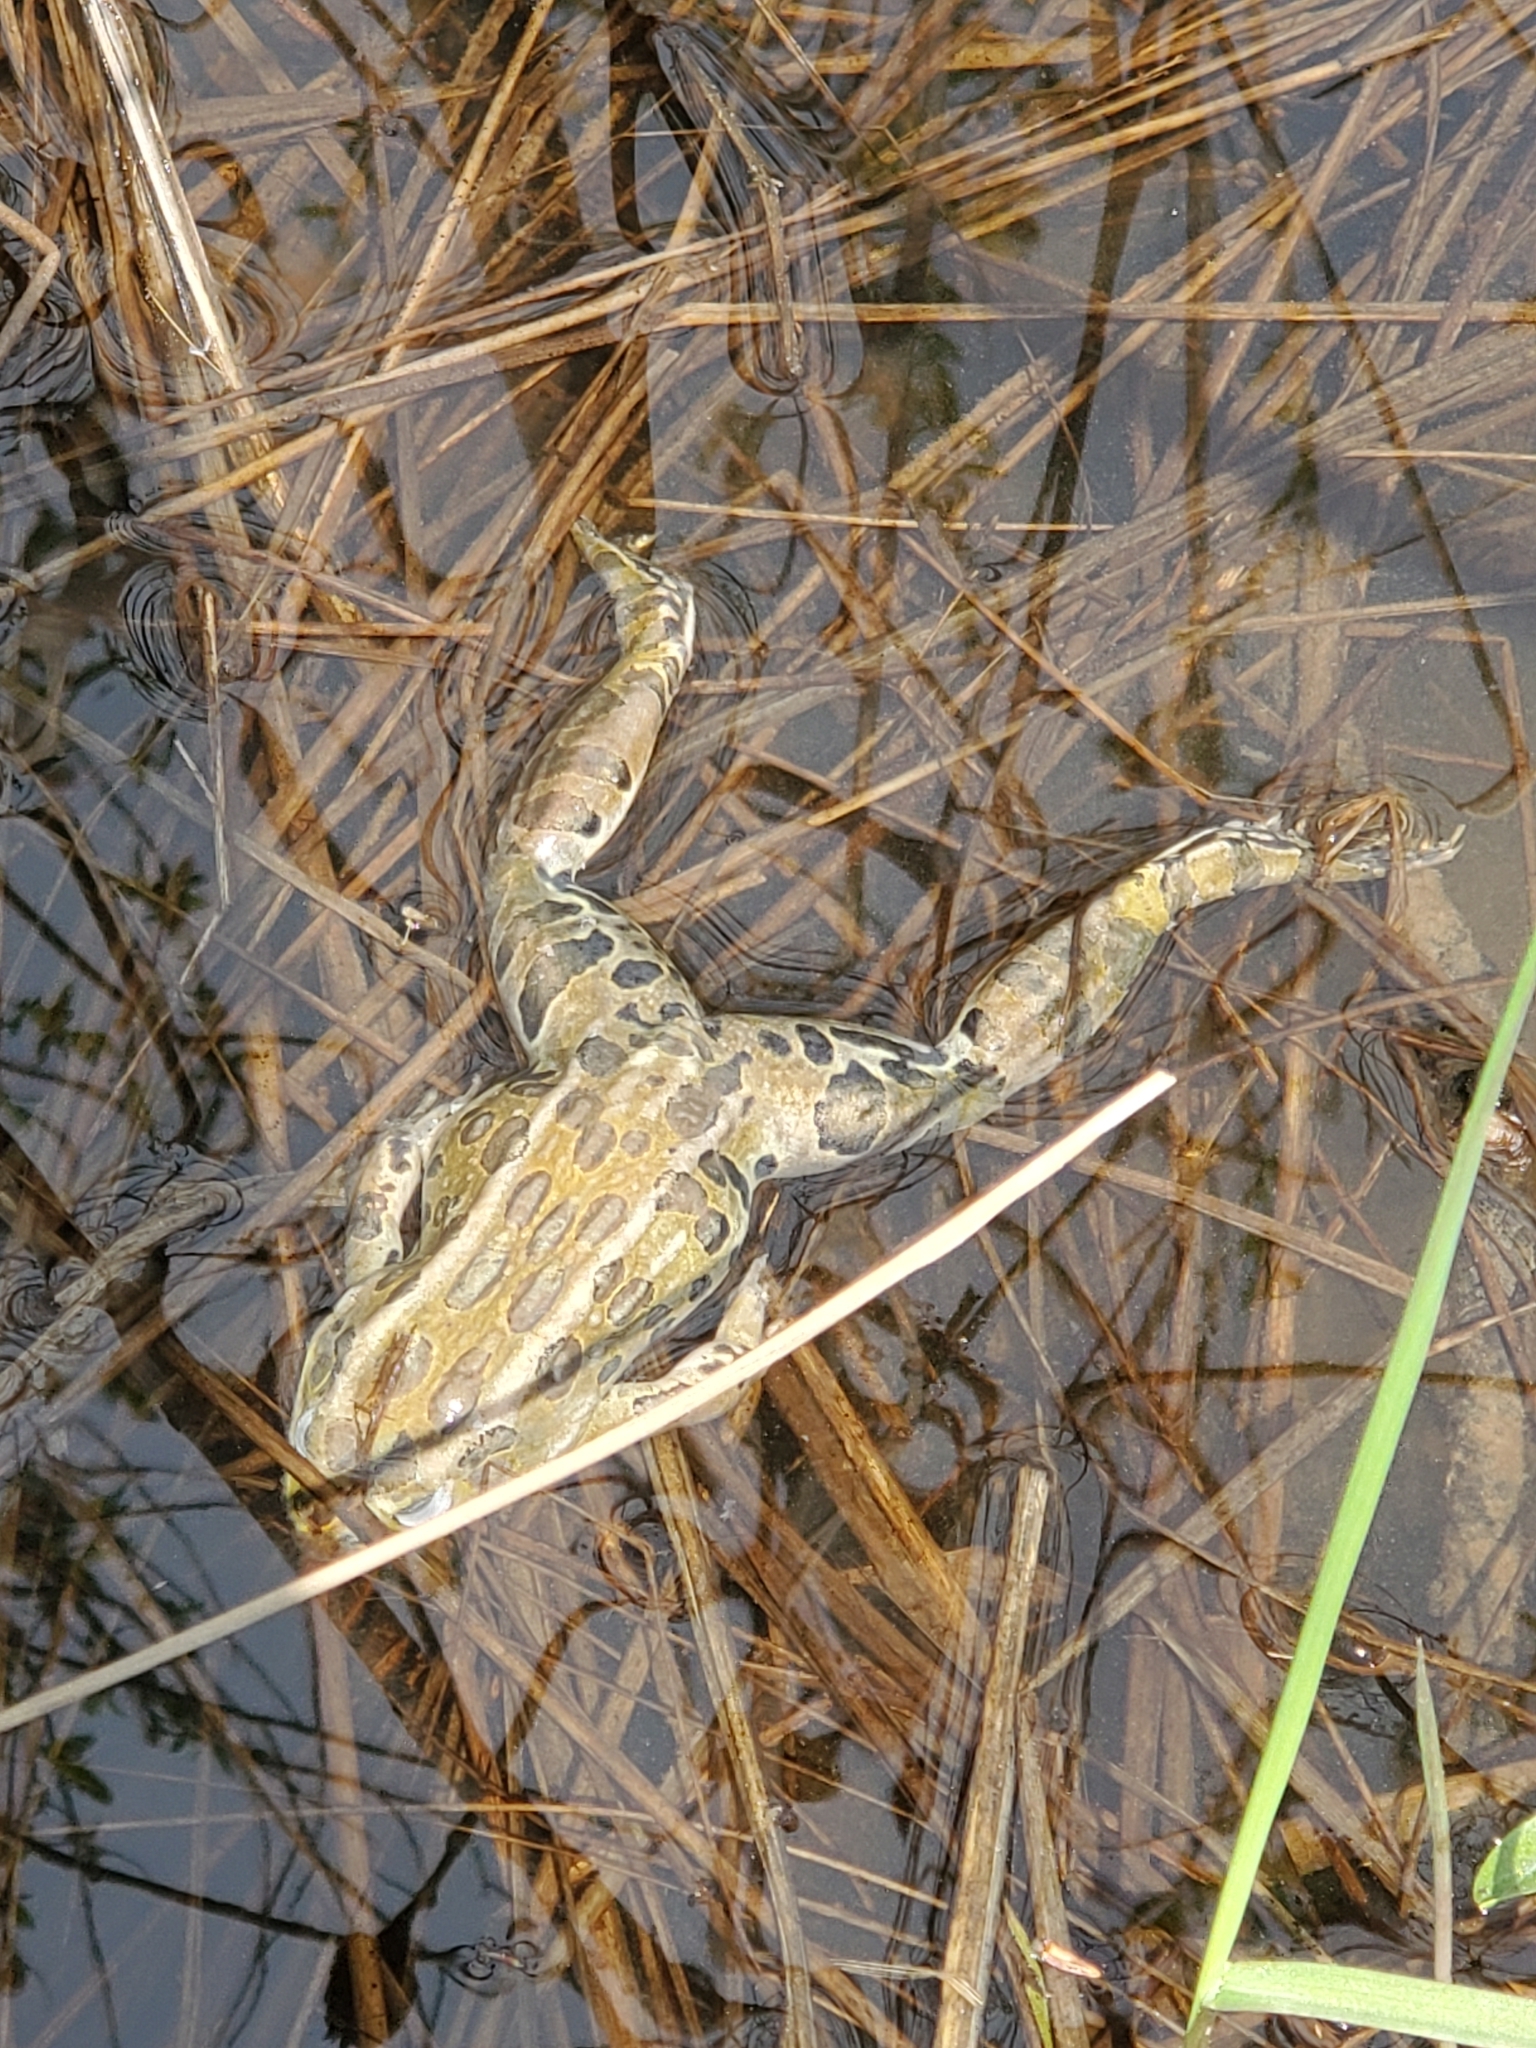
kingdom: Animalia
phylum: Chordata
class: Amphibia
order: Anura
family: Ranidae
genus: Lithobates
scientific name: Lithobates pipiens
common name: Northern leopard frog
